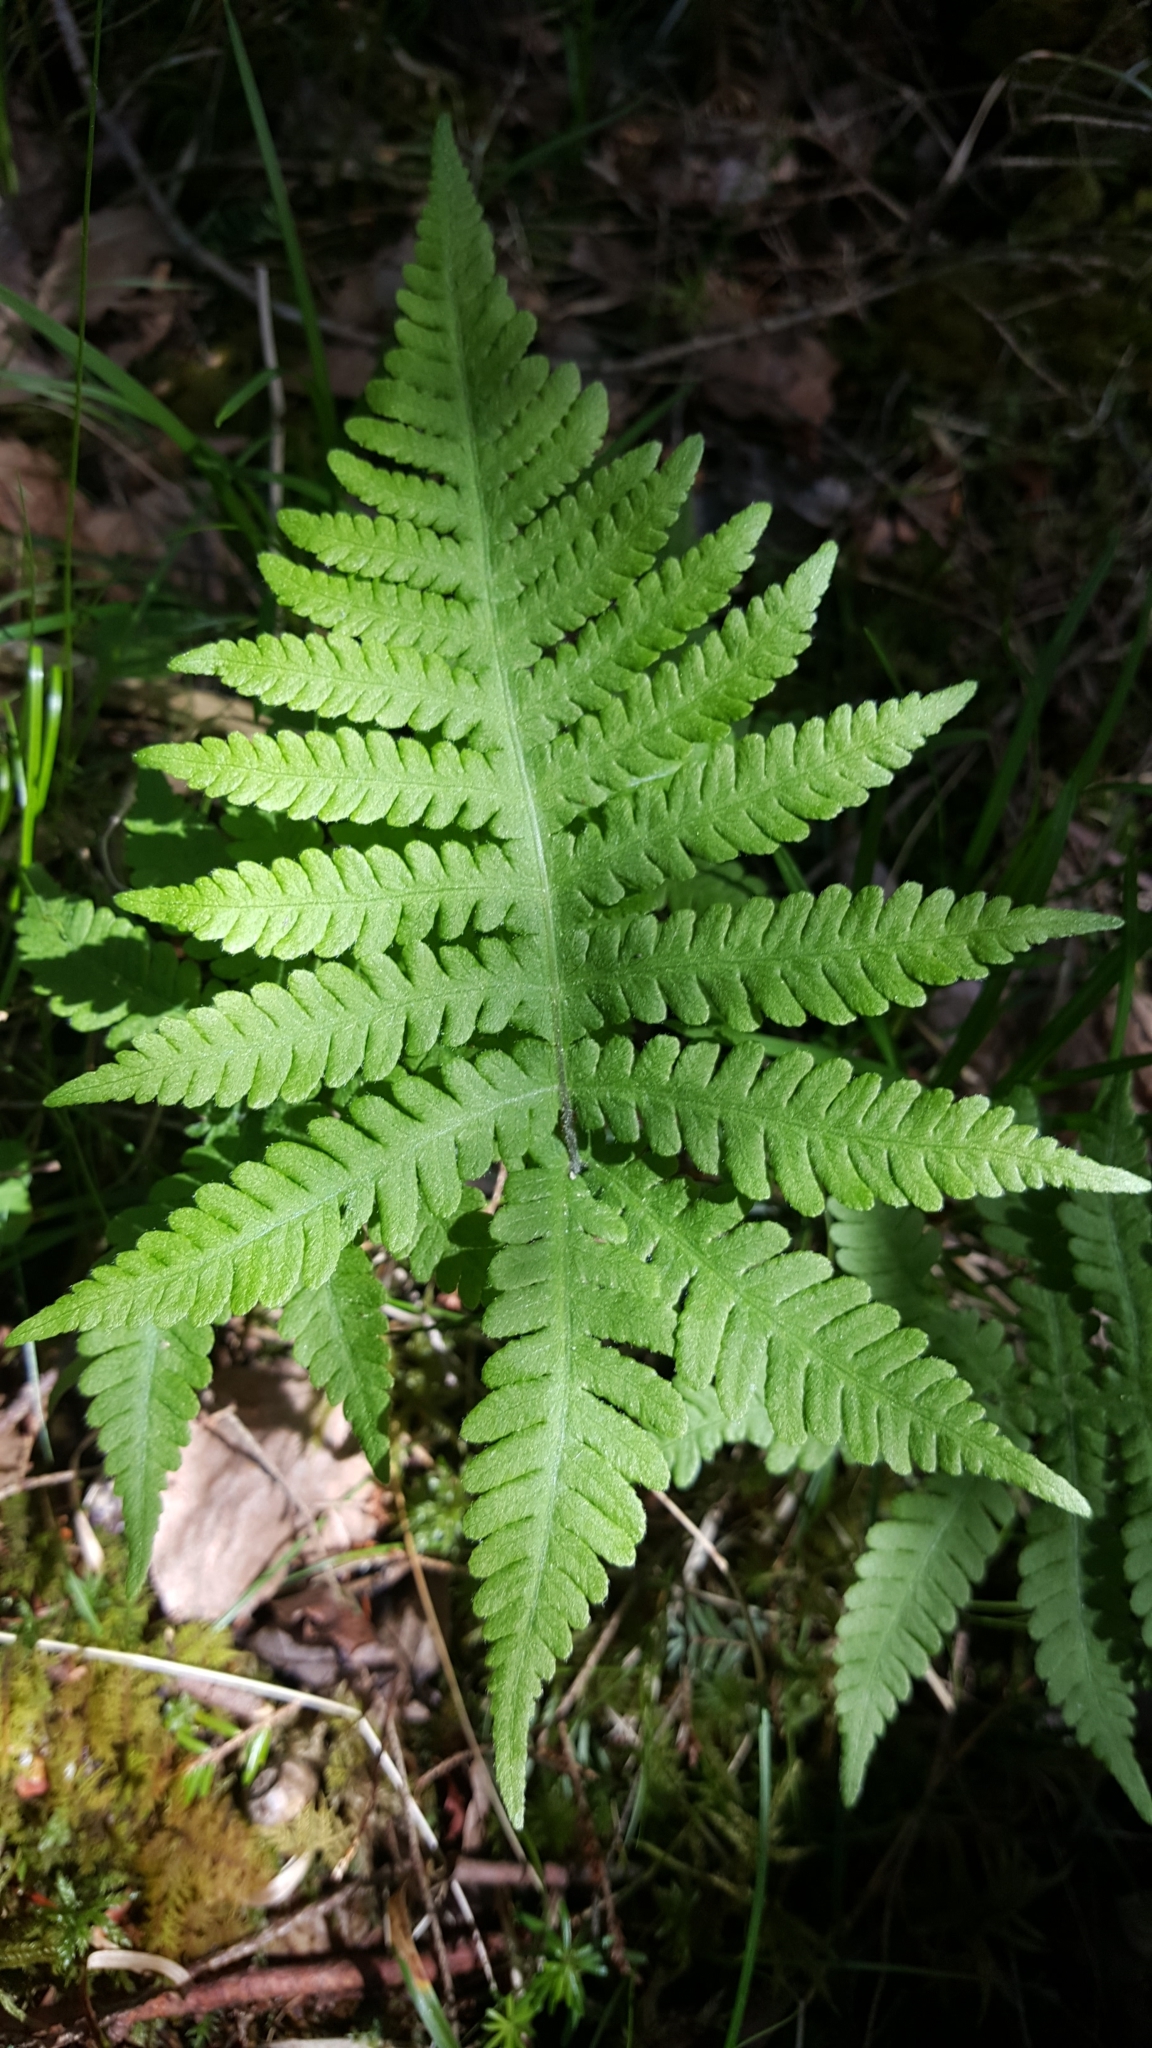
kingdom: Plantae
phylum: Tracheophyta
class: Polypodiopsida
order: Polypodiales
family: Thelypteridaceae
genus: Phegopteris
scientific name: Phegopteris connectilis
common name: Beech fern
